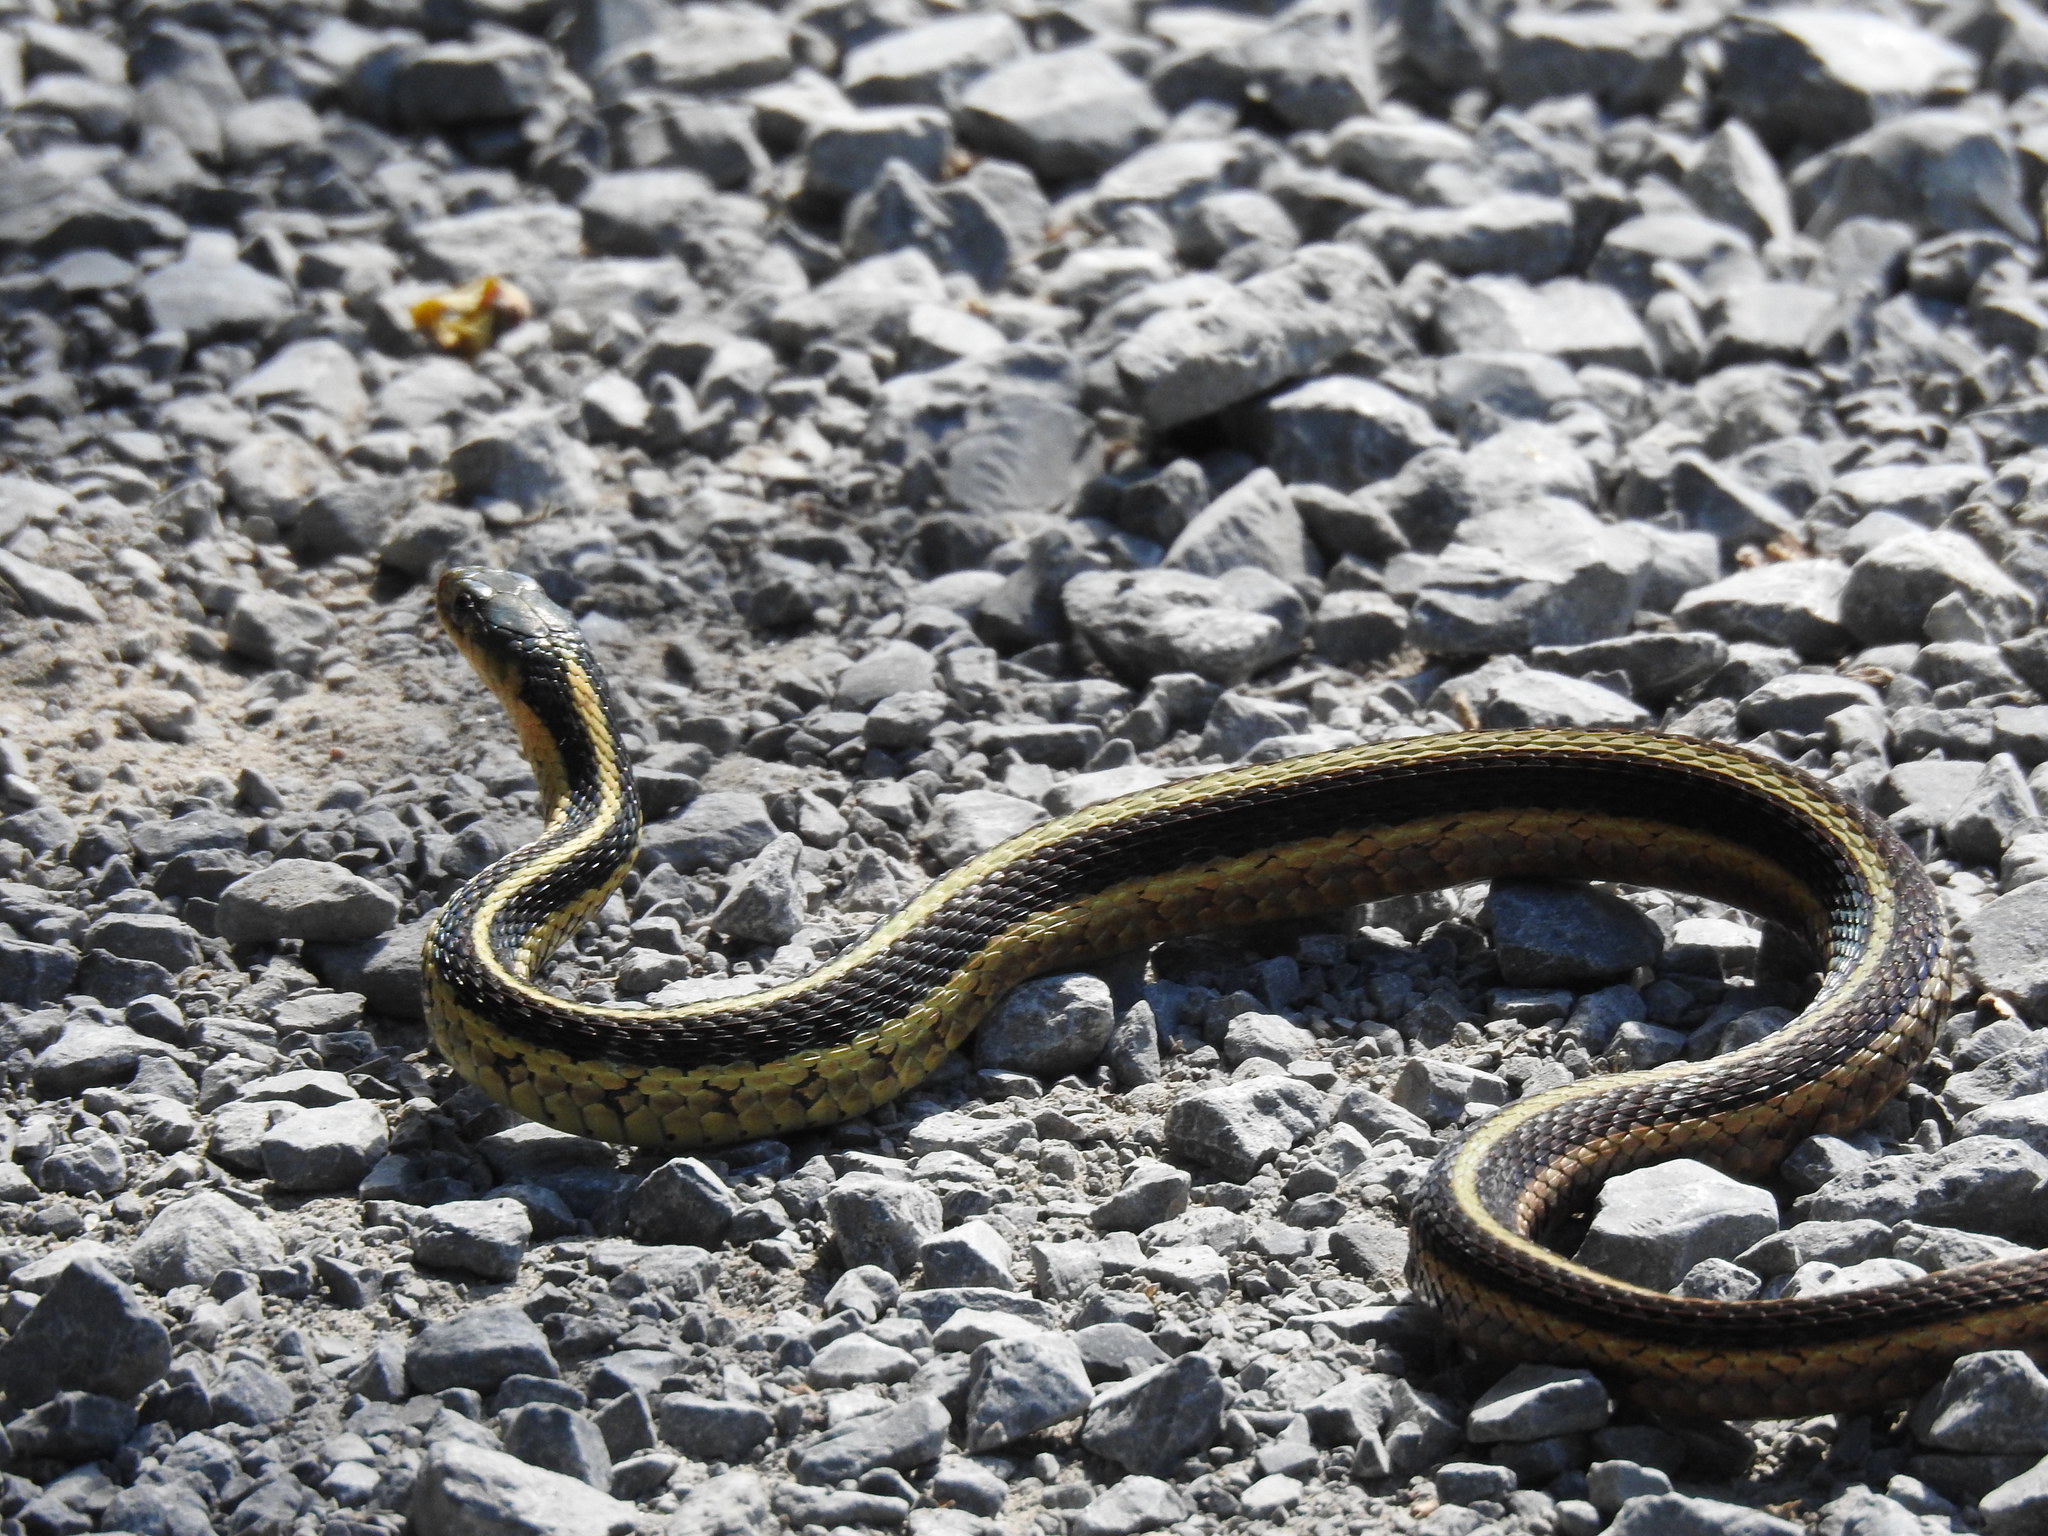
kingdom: Animalia
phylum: Chordata
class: Squamata
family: Colubridae
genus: Thamnophis
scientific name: Thamnophis sirtalis
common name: Common garter snake
